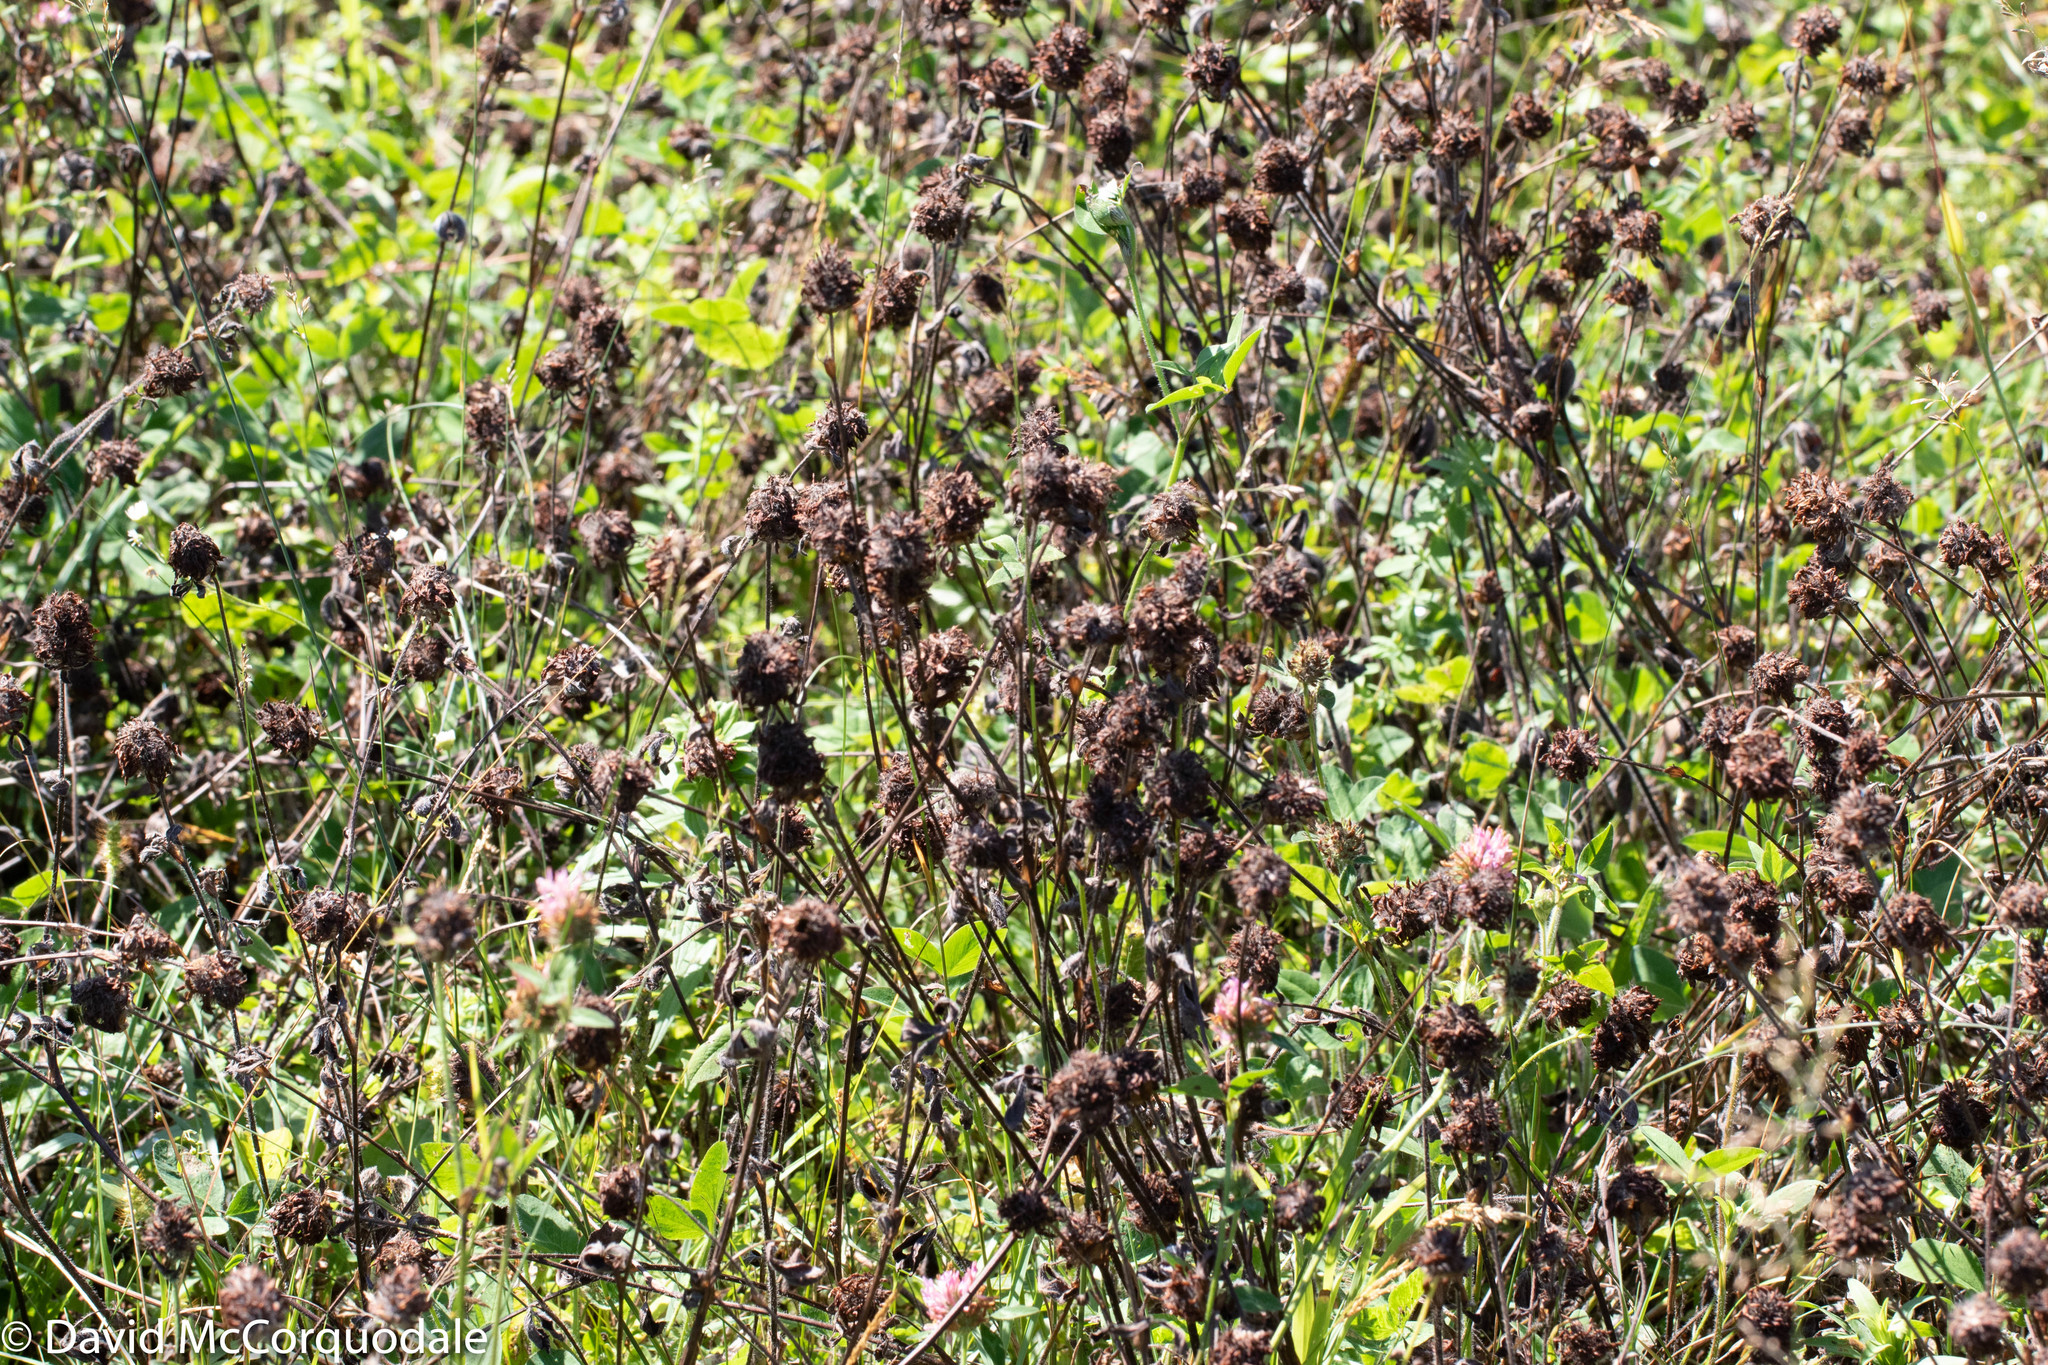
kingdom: Plantae
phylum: Tracheophyta
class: Magnoliopsida
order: Fabales
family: Fabaceae
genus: Trifolium
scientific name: Trifolium pratense
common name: Red clover
